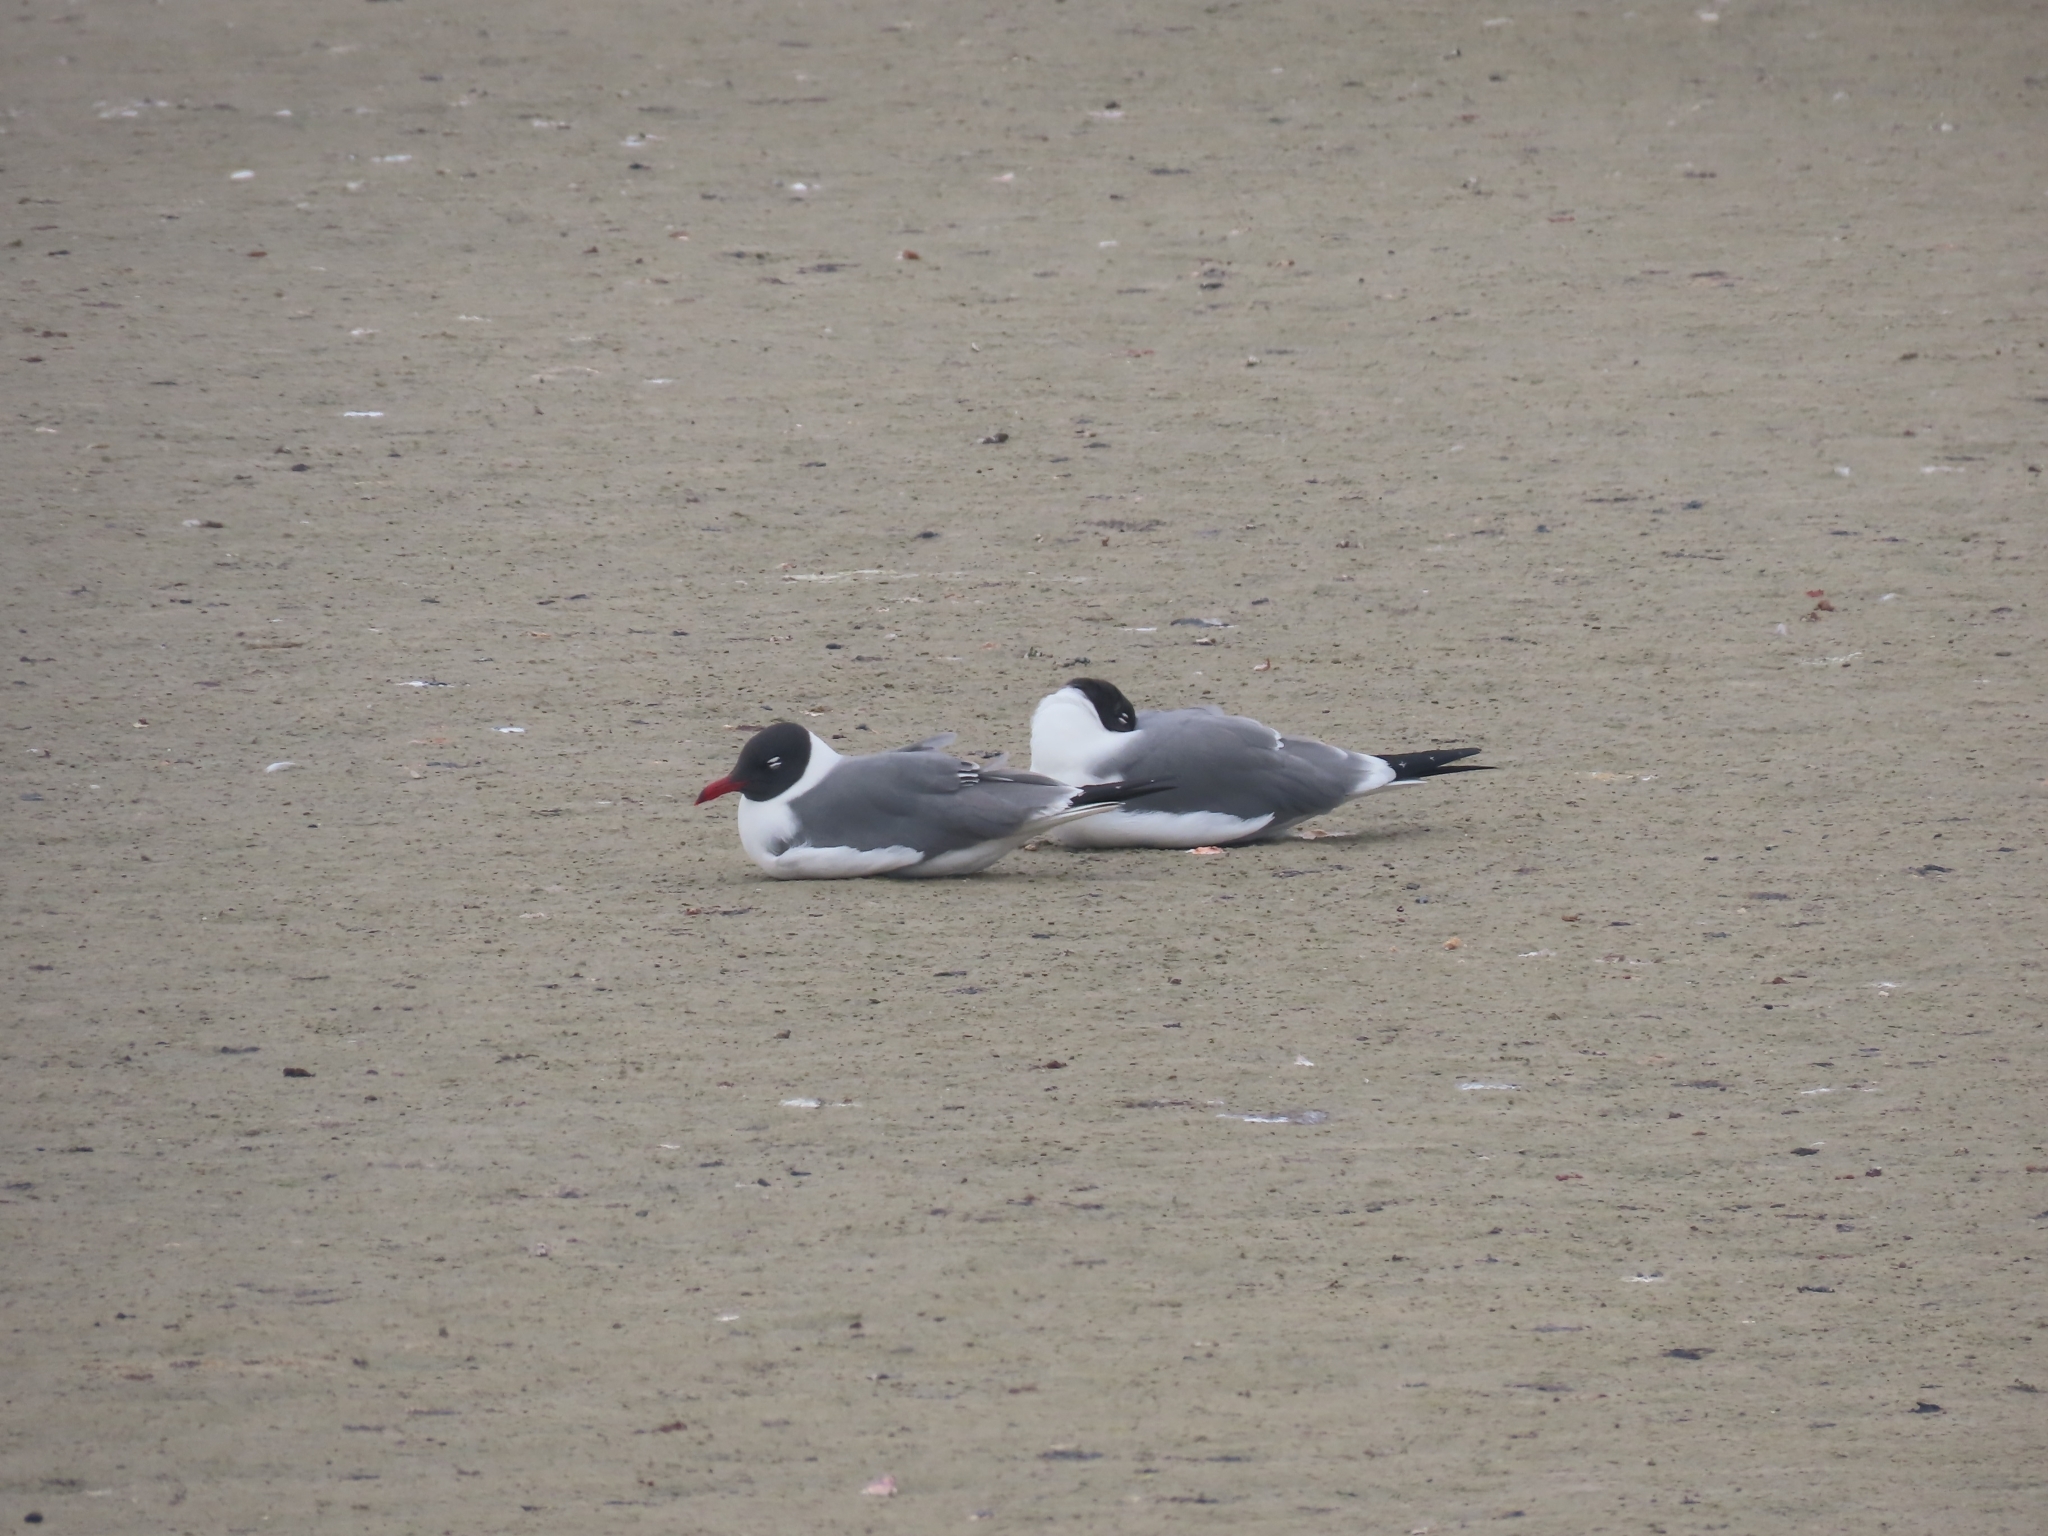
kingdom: Animalia
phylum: Chordata
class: Aves
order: Charadriiformes
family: Laridae
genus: Leucophaeus
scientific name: Leucophaeus atricilla
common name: Laughing gull
